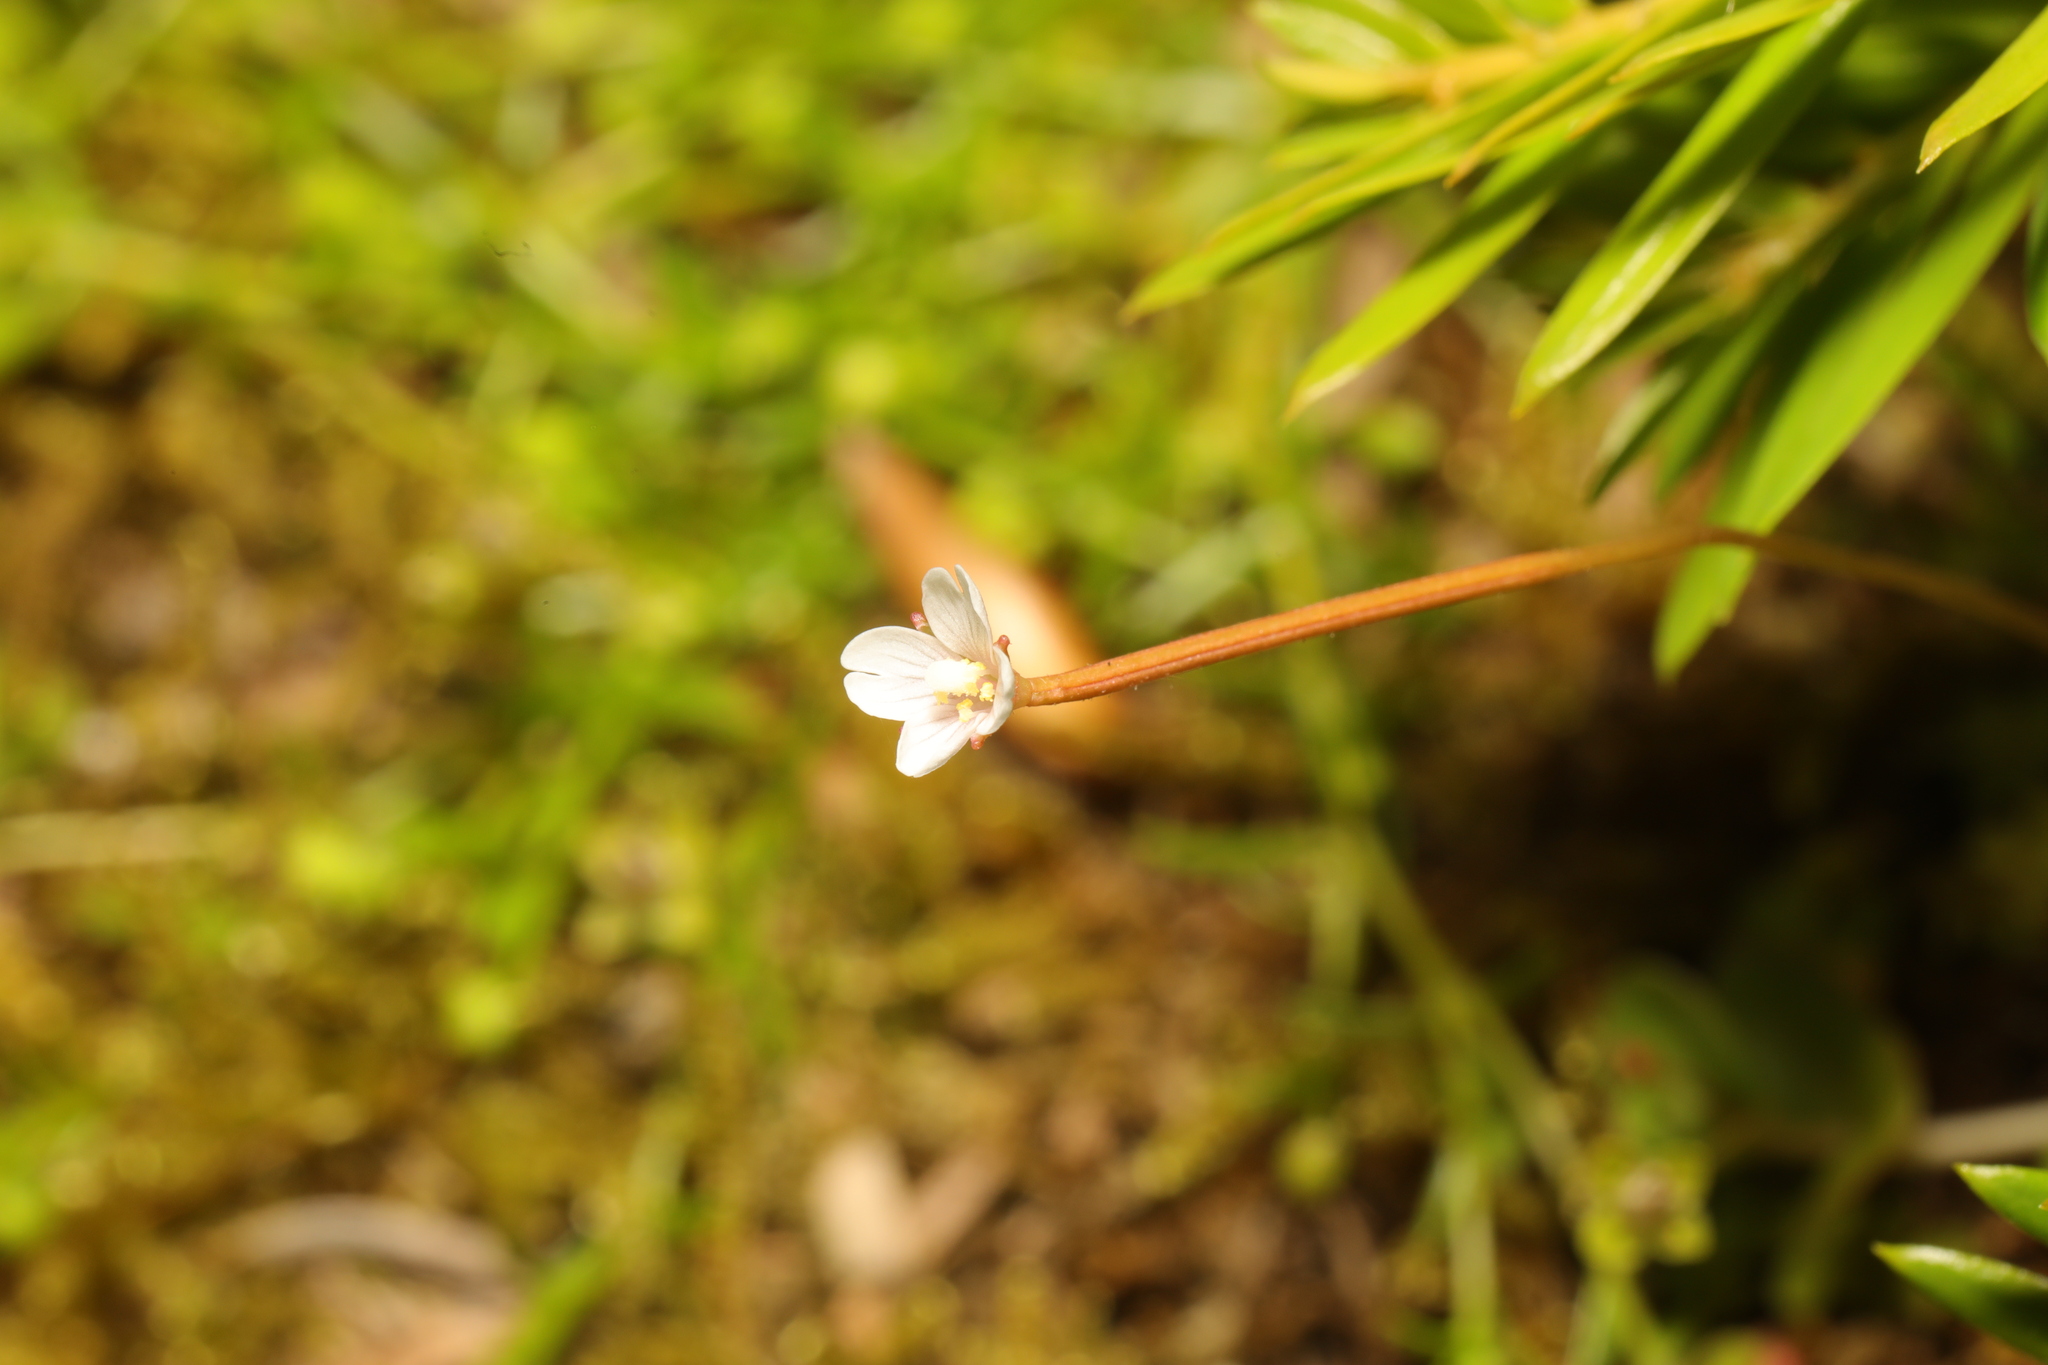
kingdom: Plantae
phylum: Tracheophyta
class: Magnoliopsida
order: Myrtales
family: Onagraceae
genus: Epilobium
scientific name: Epilobium brunnescens
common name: New zealand willowherb
